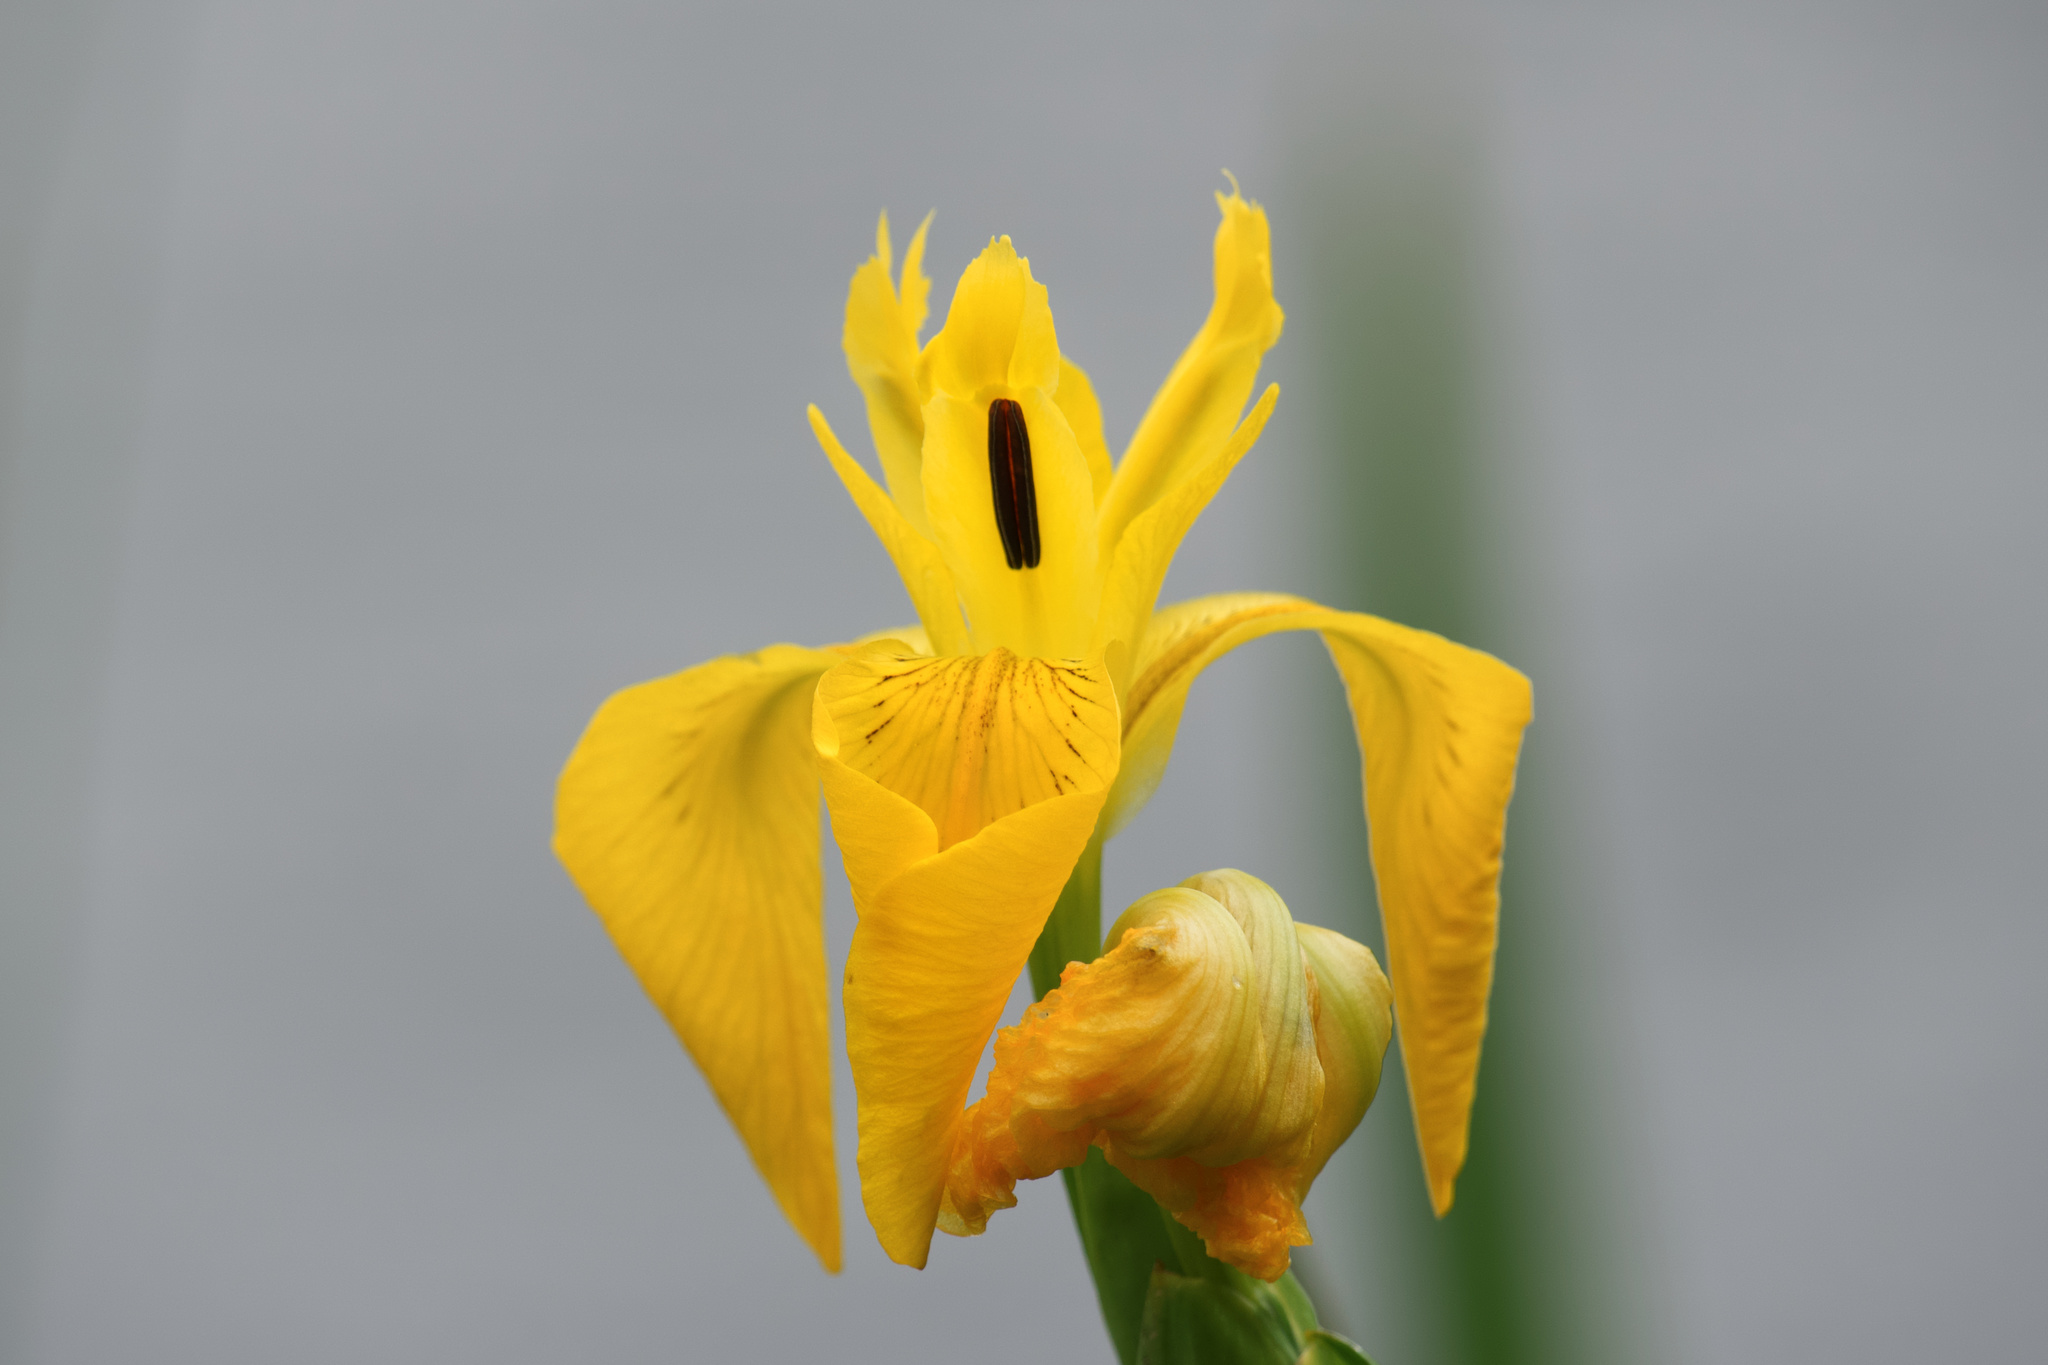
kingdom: Plantae
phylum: Tracheophyta
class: Liliopsida
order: Asparagales
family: Iridaceae
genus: Iris
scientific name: Iris pseudacorus
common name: Yellow flag
